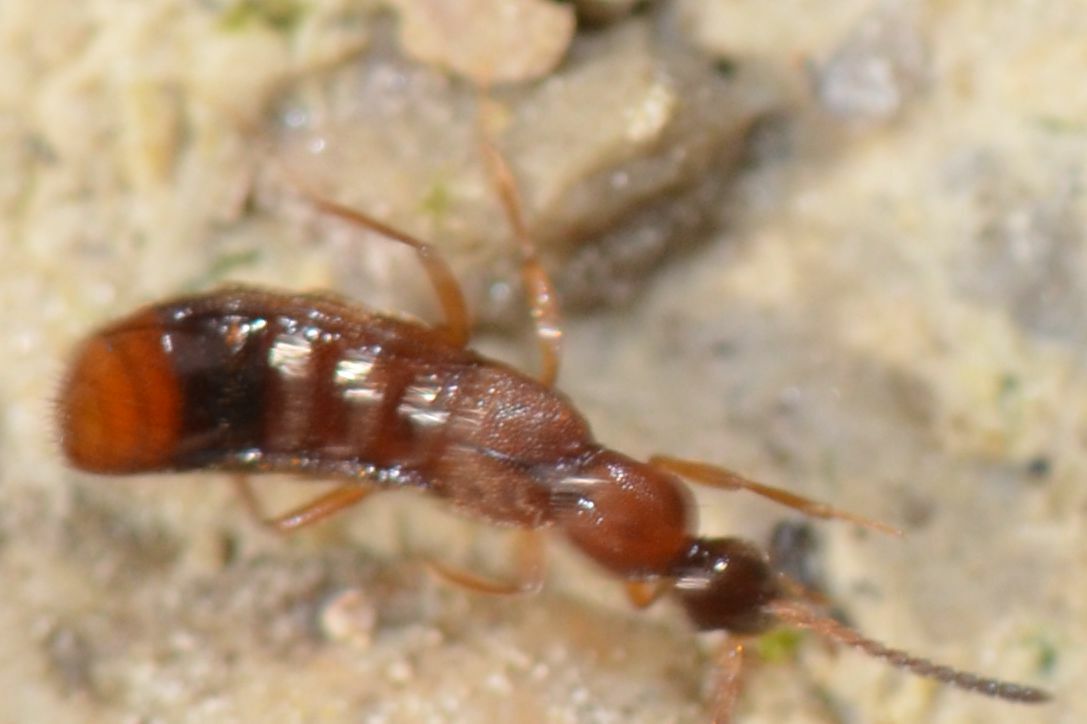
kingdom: Animalia
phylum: Arthropoda
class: Insecta
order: Coleoptera
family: Staphylinidae
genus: Drusilla
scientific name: Drusilla canaliculata
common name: Rove beetle
